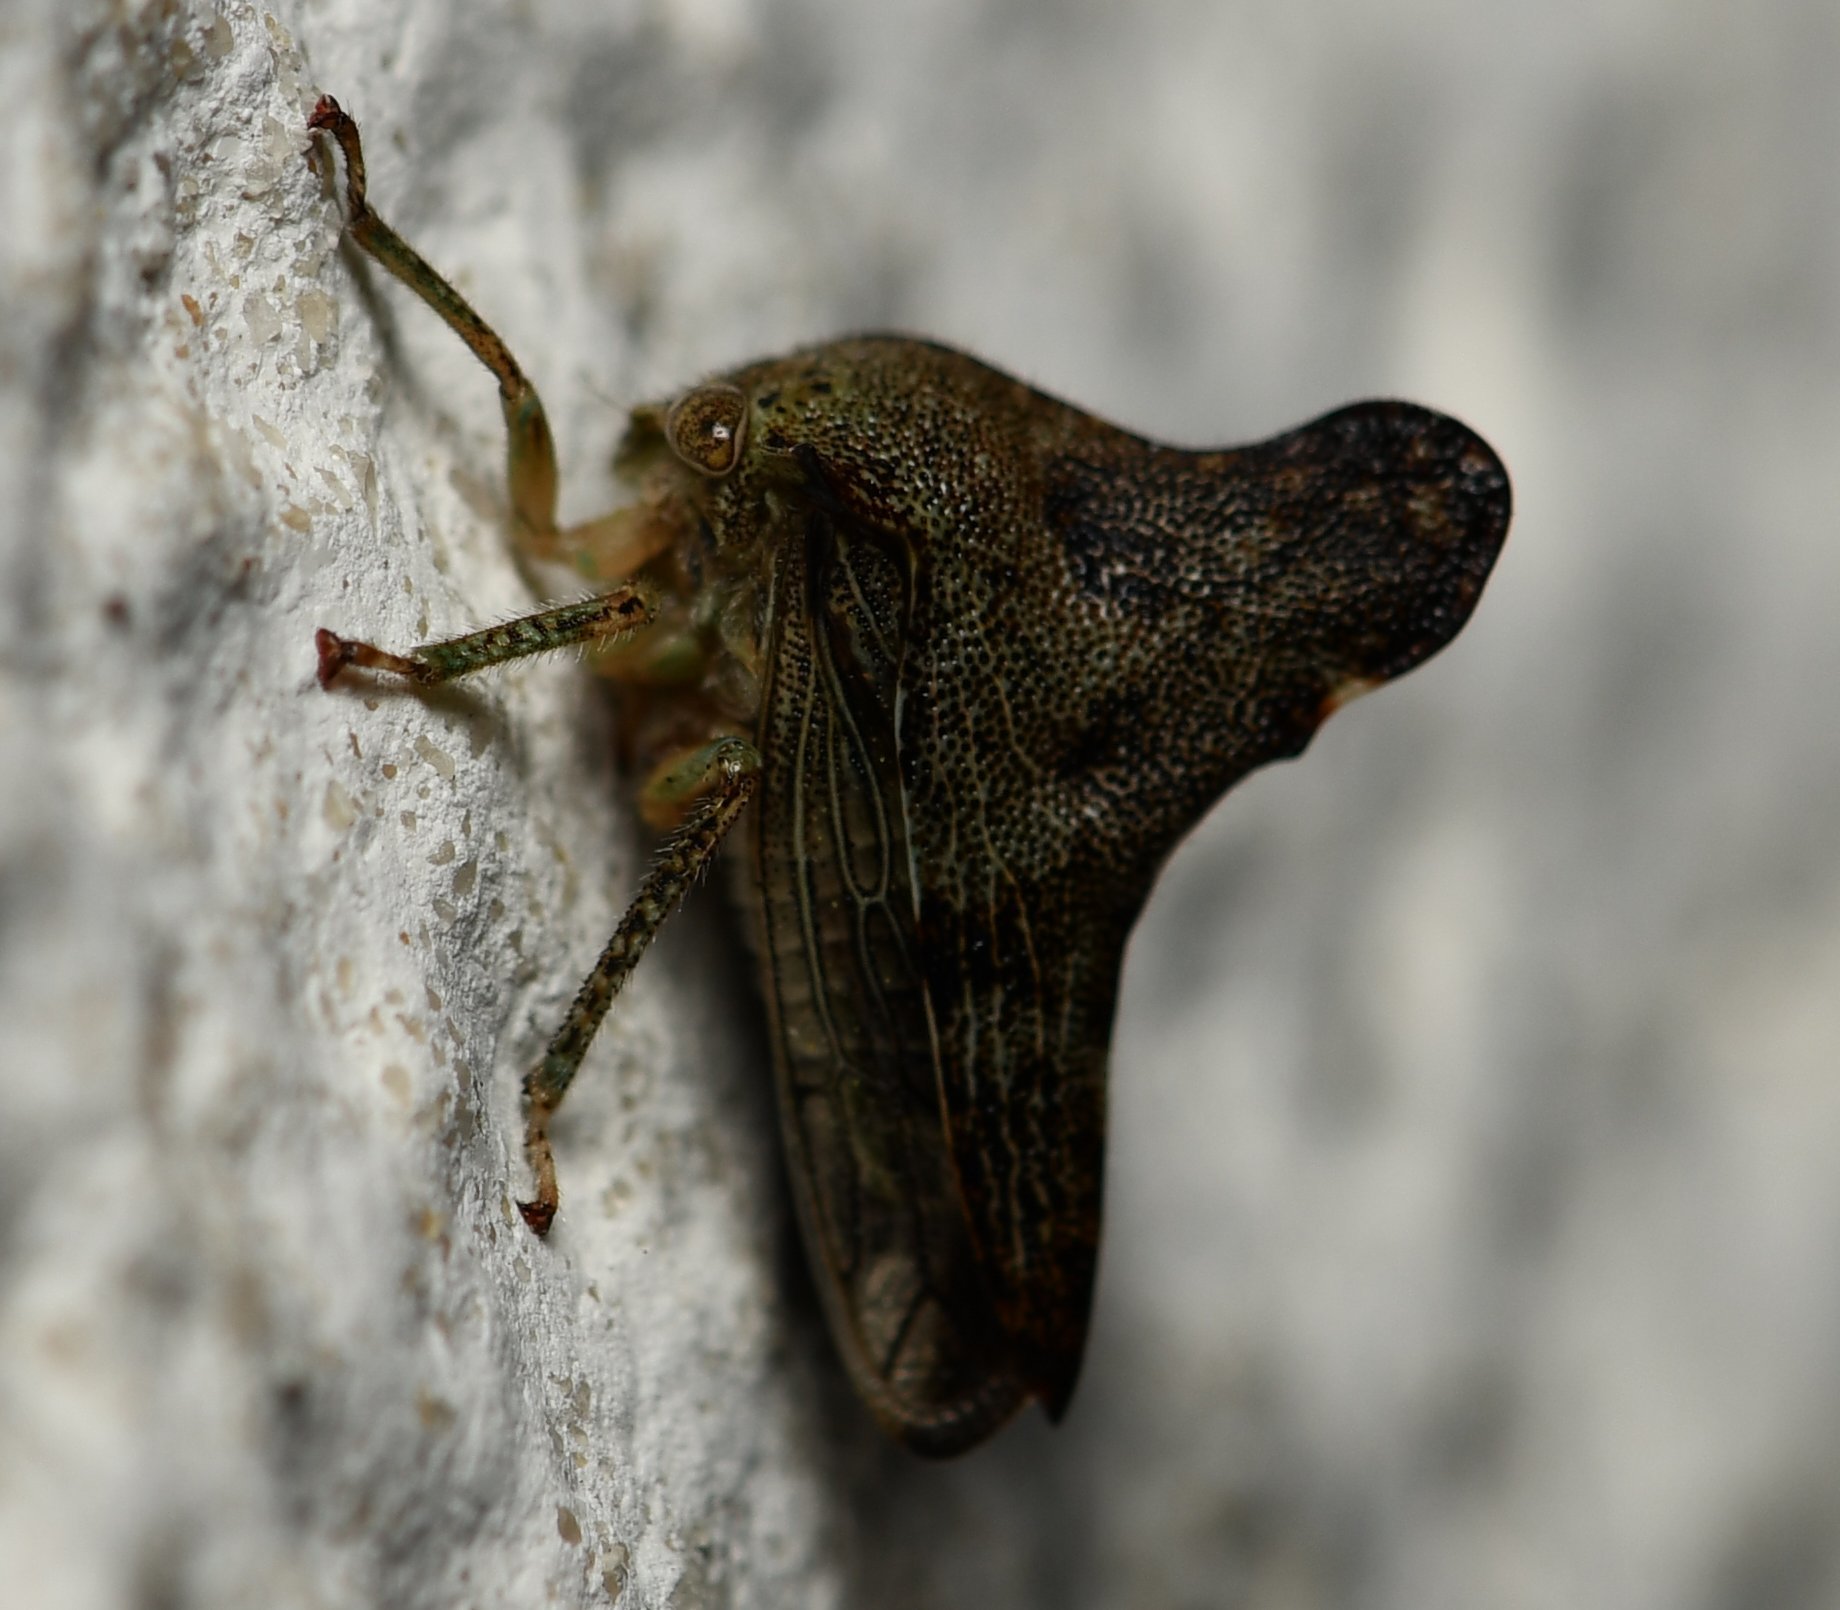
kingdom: Animalia
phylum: Arthropoda
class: Insecta
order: Hemiptera
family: Membracidae
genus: Telonaca
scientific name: Telonaca alta
